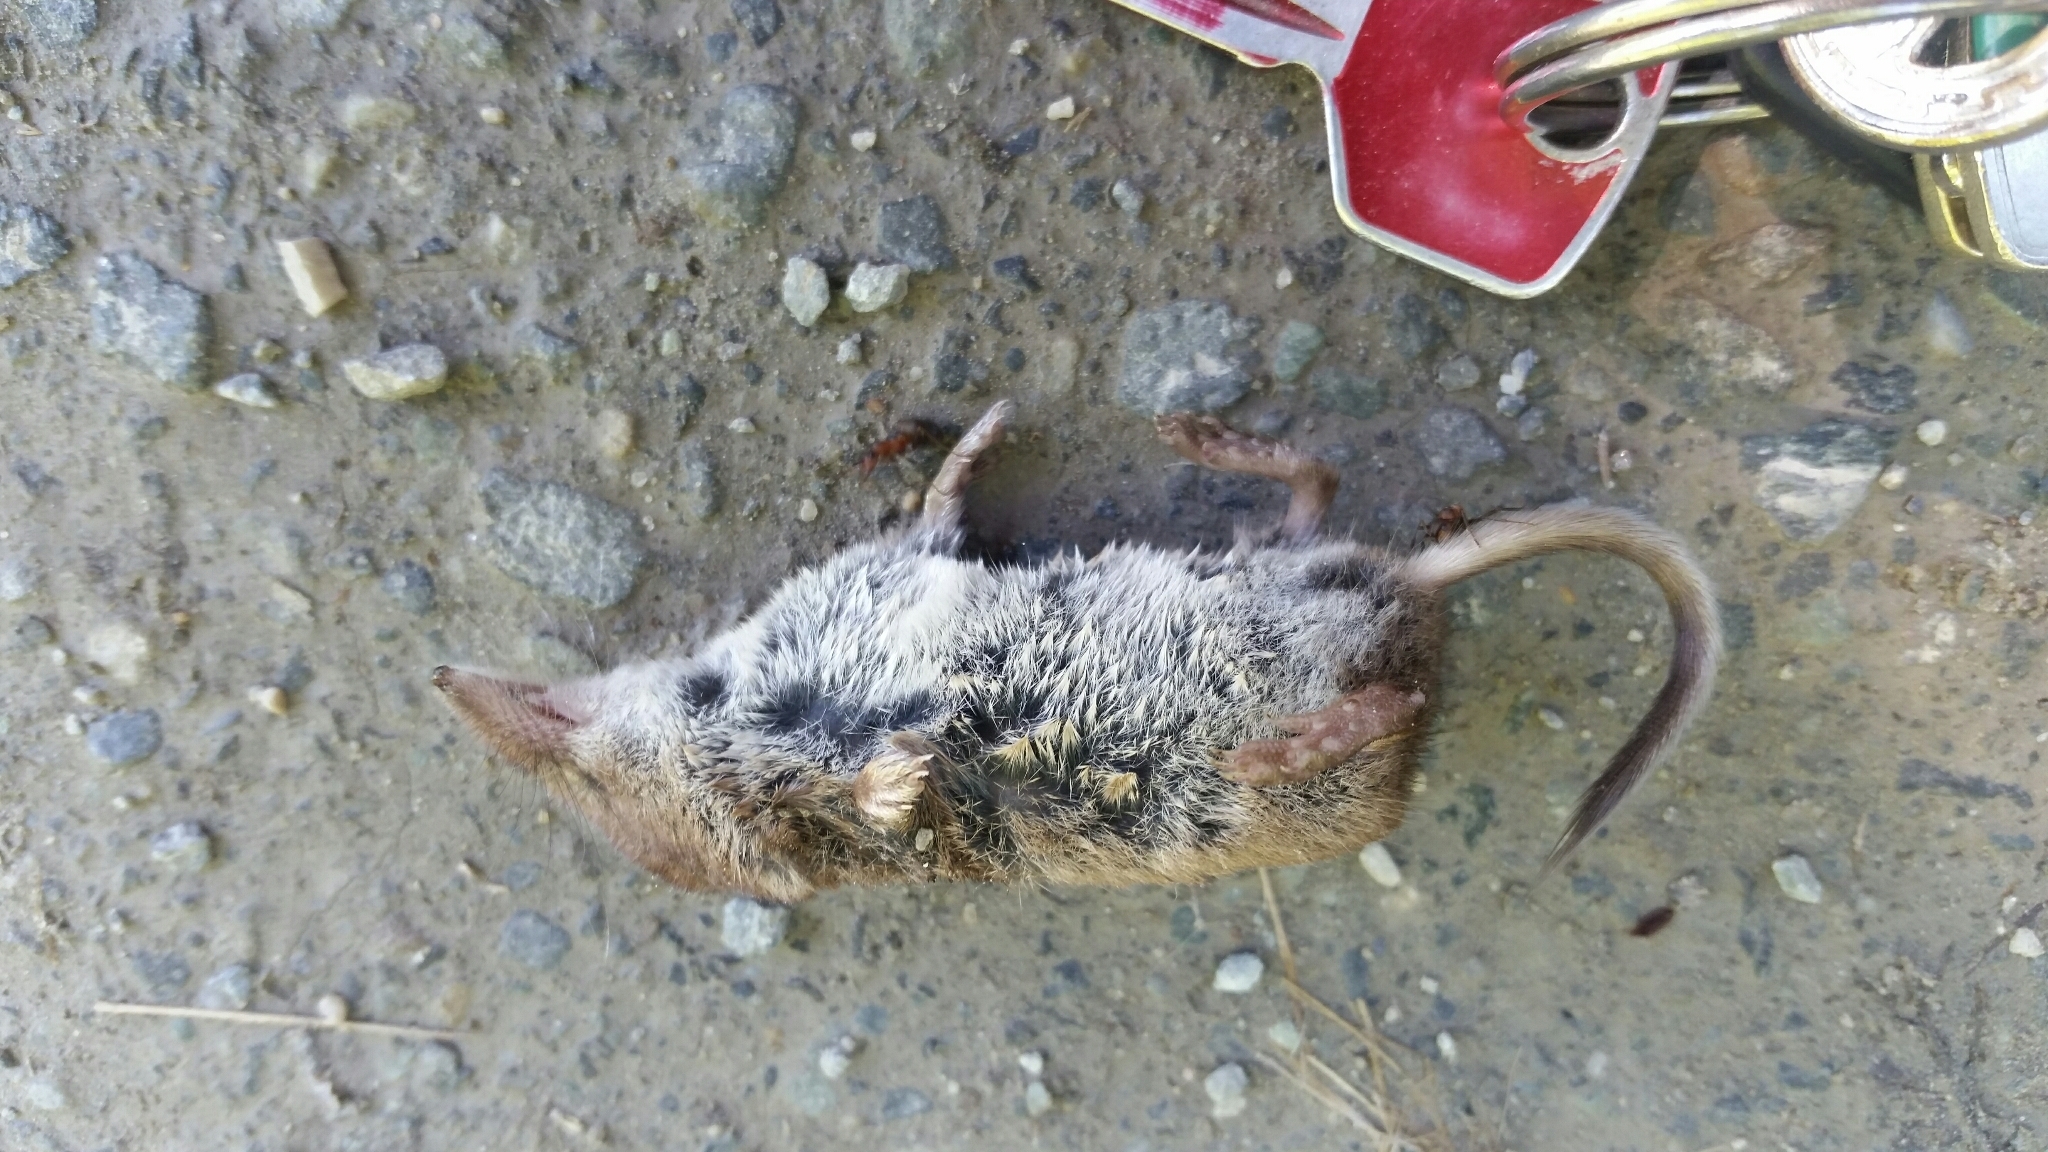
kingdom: Animalia
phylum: Chordata
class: Mammalia
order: Soricomorpha
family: Soricidae
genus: Sorex
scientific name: Sorex araneus
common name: Common shrew
